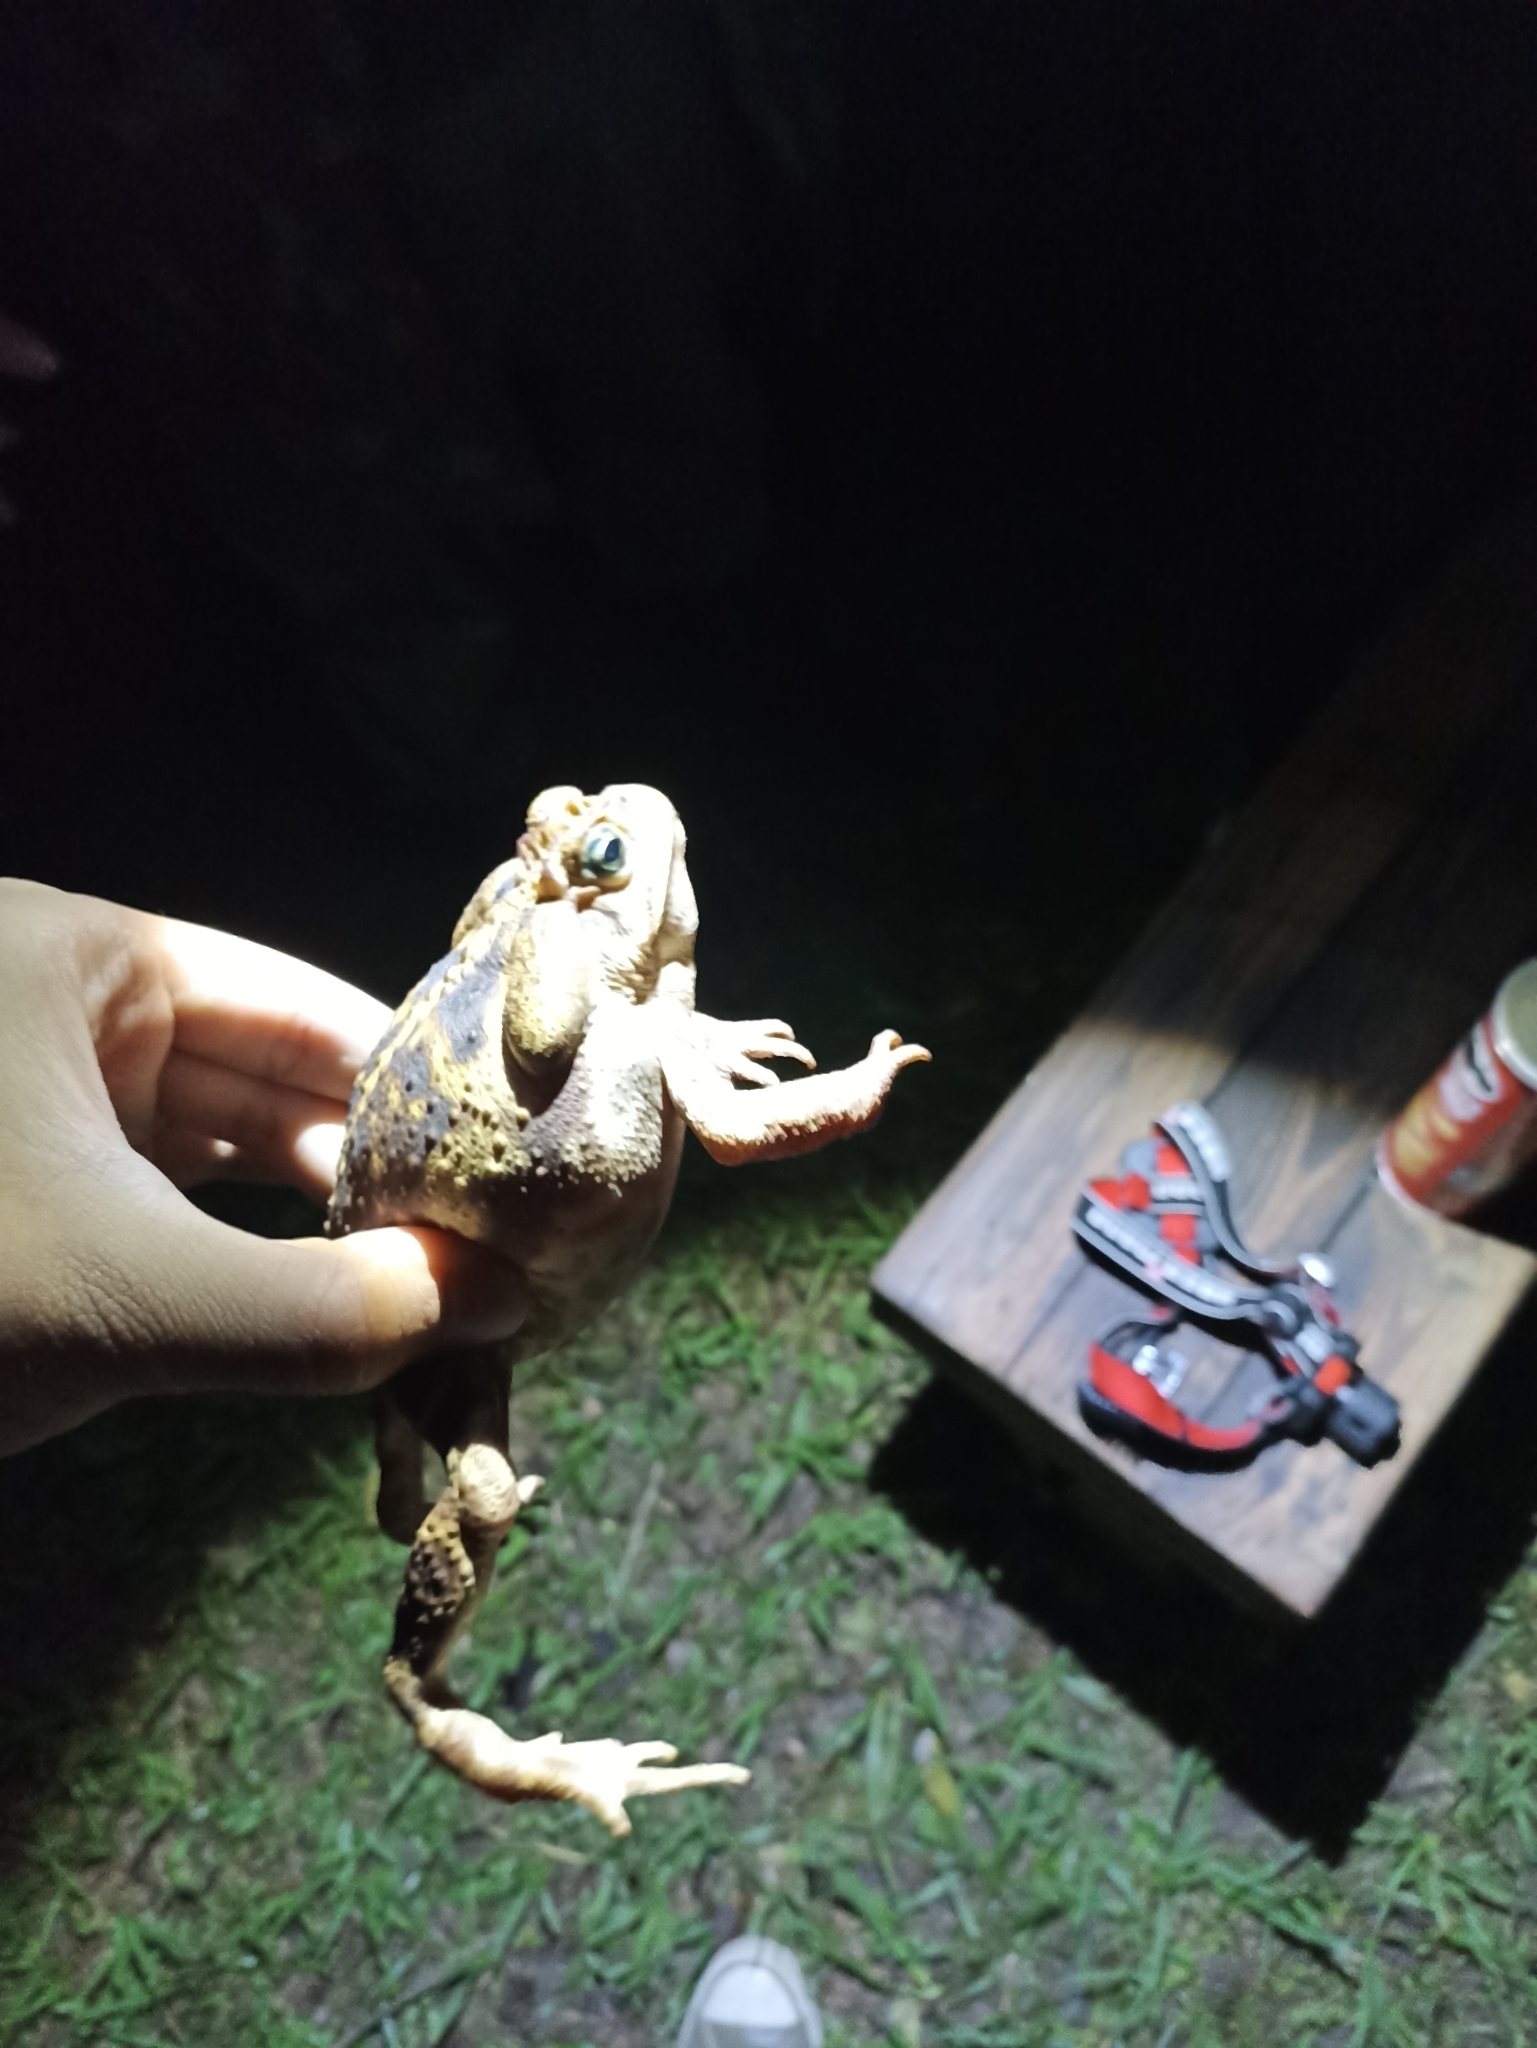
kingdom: Animalia
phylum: Chordata
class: Amphibia
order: Anura
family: Bufonidae
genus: Rhinella
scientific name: Rhinella icterica
